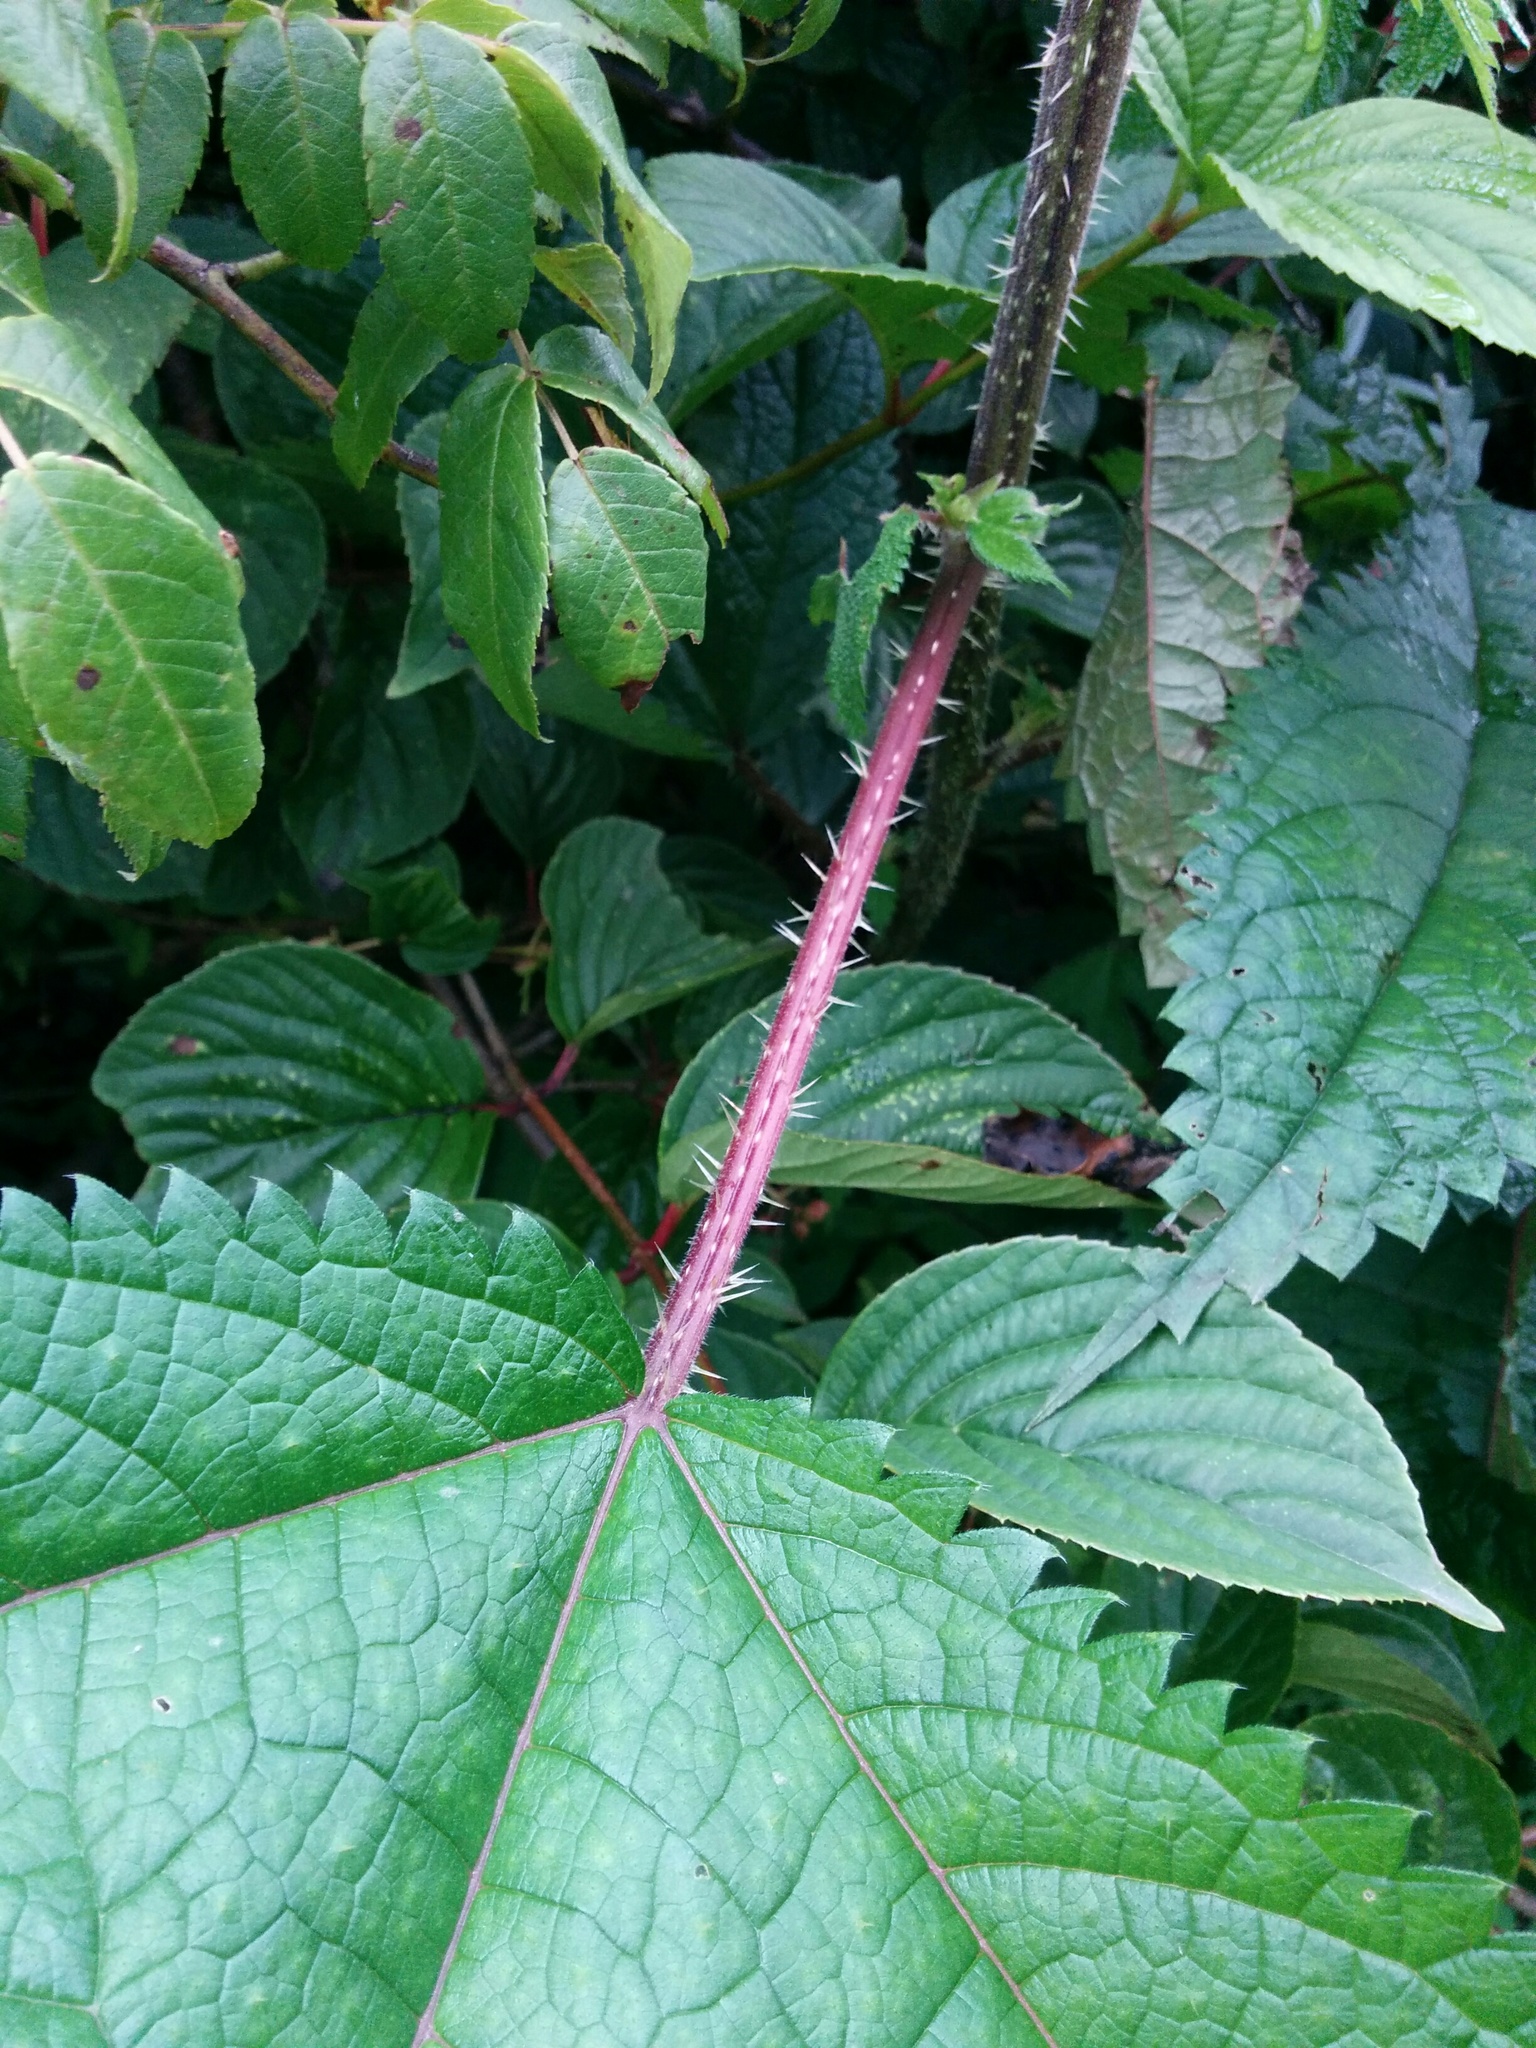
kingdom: Plantae
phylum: Tracheophyta
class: Magnoliopsida
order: Rosales
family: Urticaceae
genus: Girardinia
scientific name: Girardinia diversifolia
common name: Himalayan-nettle
